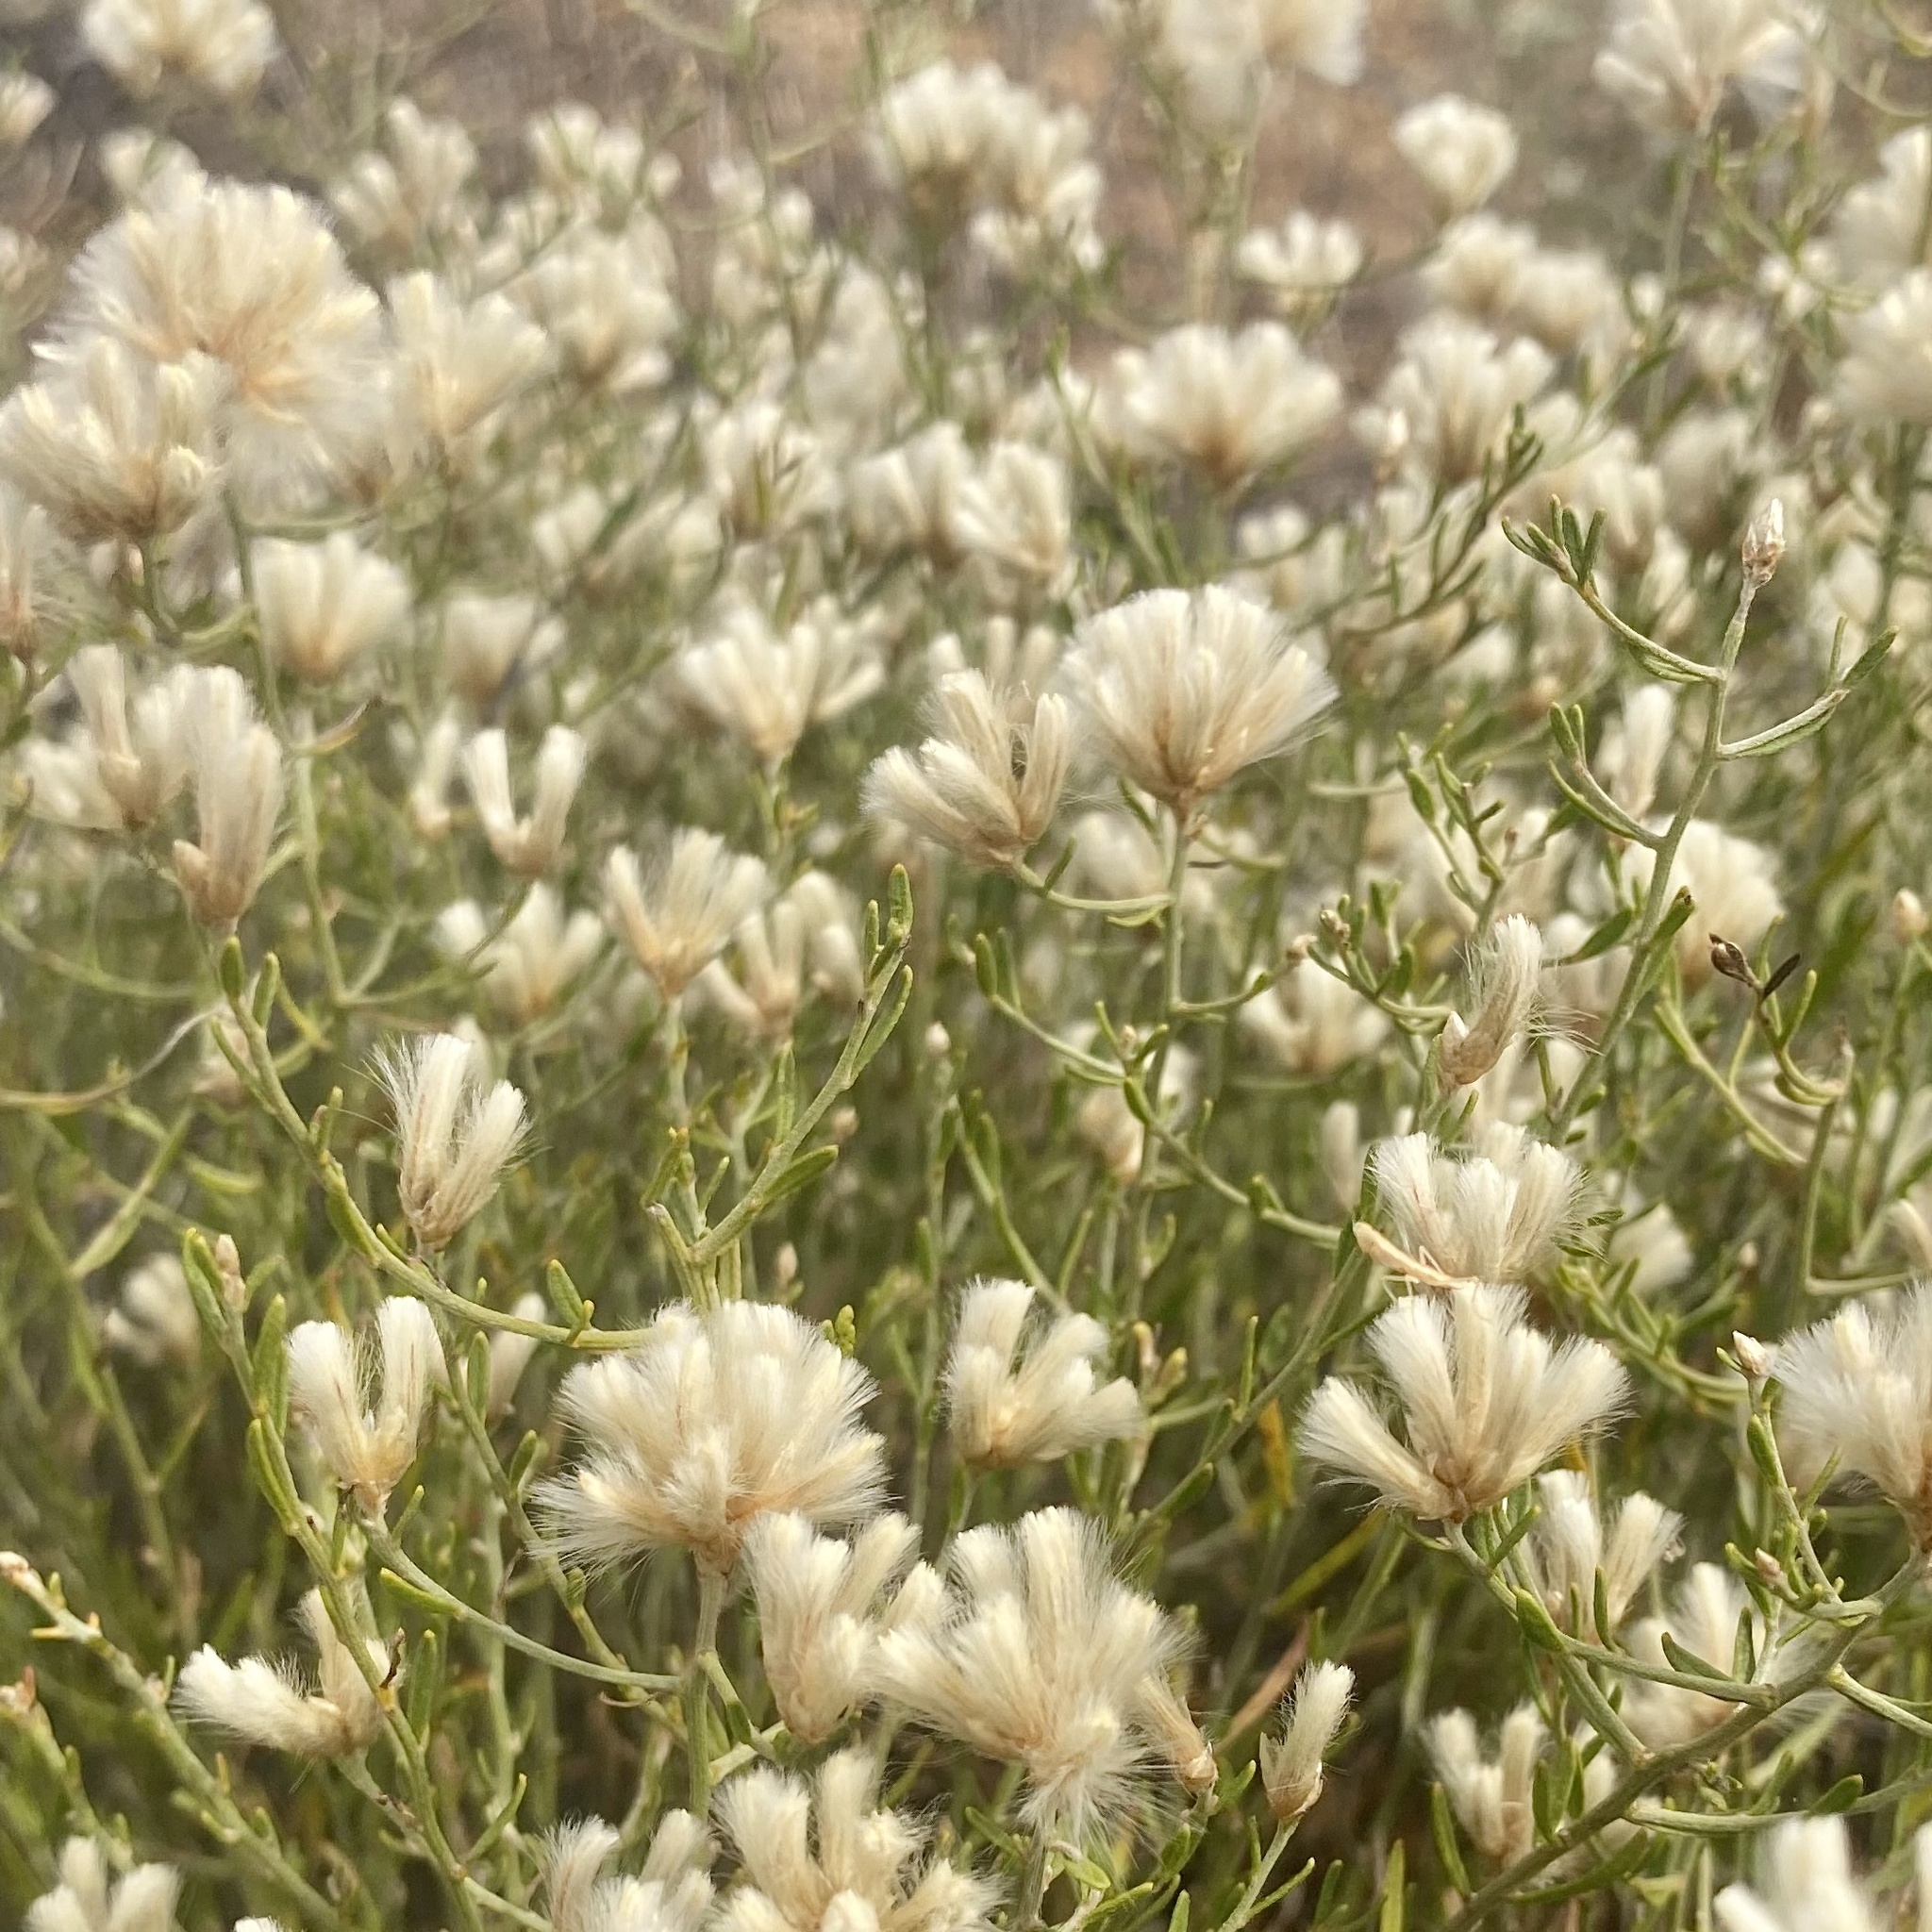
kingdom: Plantae
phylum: Tracheophyta
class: Magnoliopsida
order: Caryophyllales
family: Amaranthaceae
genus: Ptilotus
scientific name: Ptilotus divaricatus
